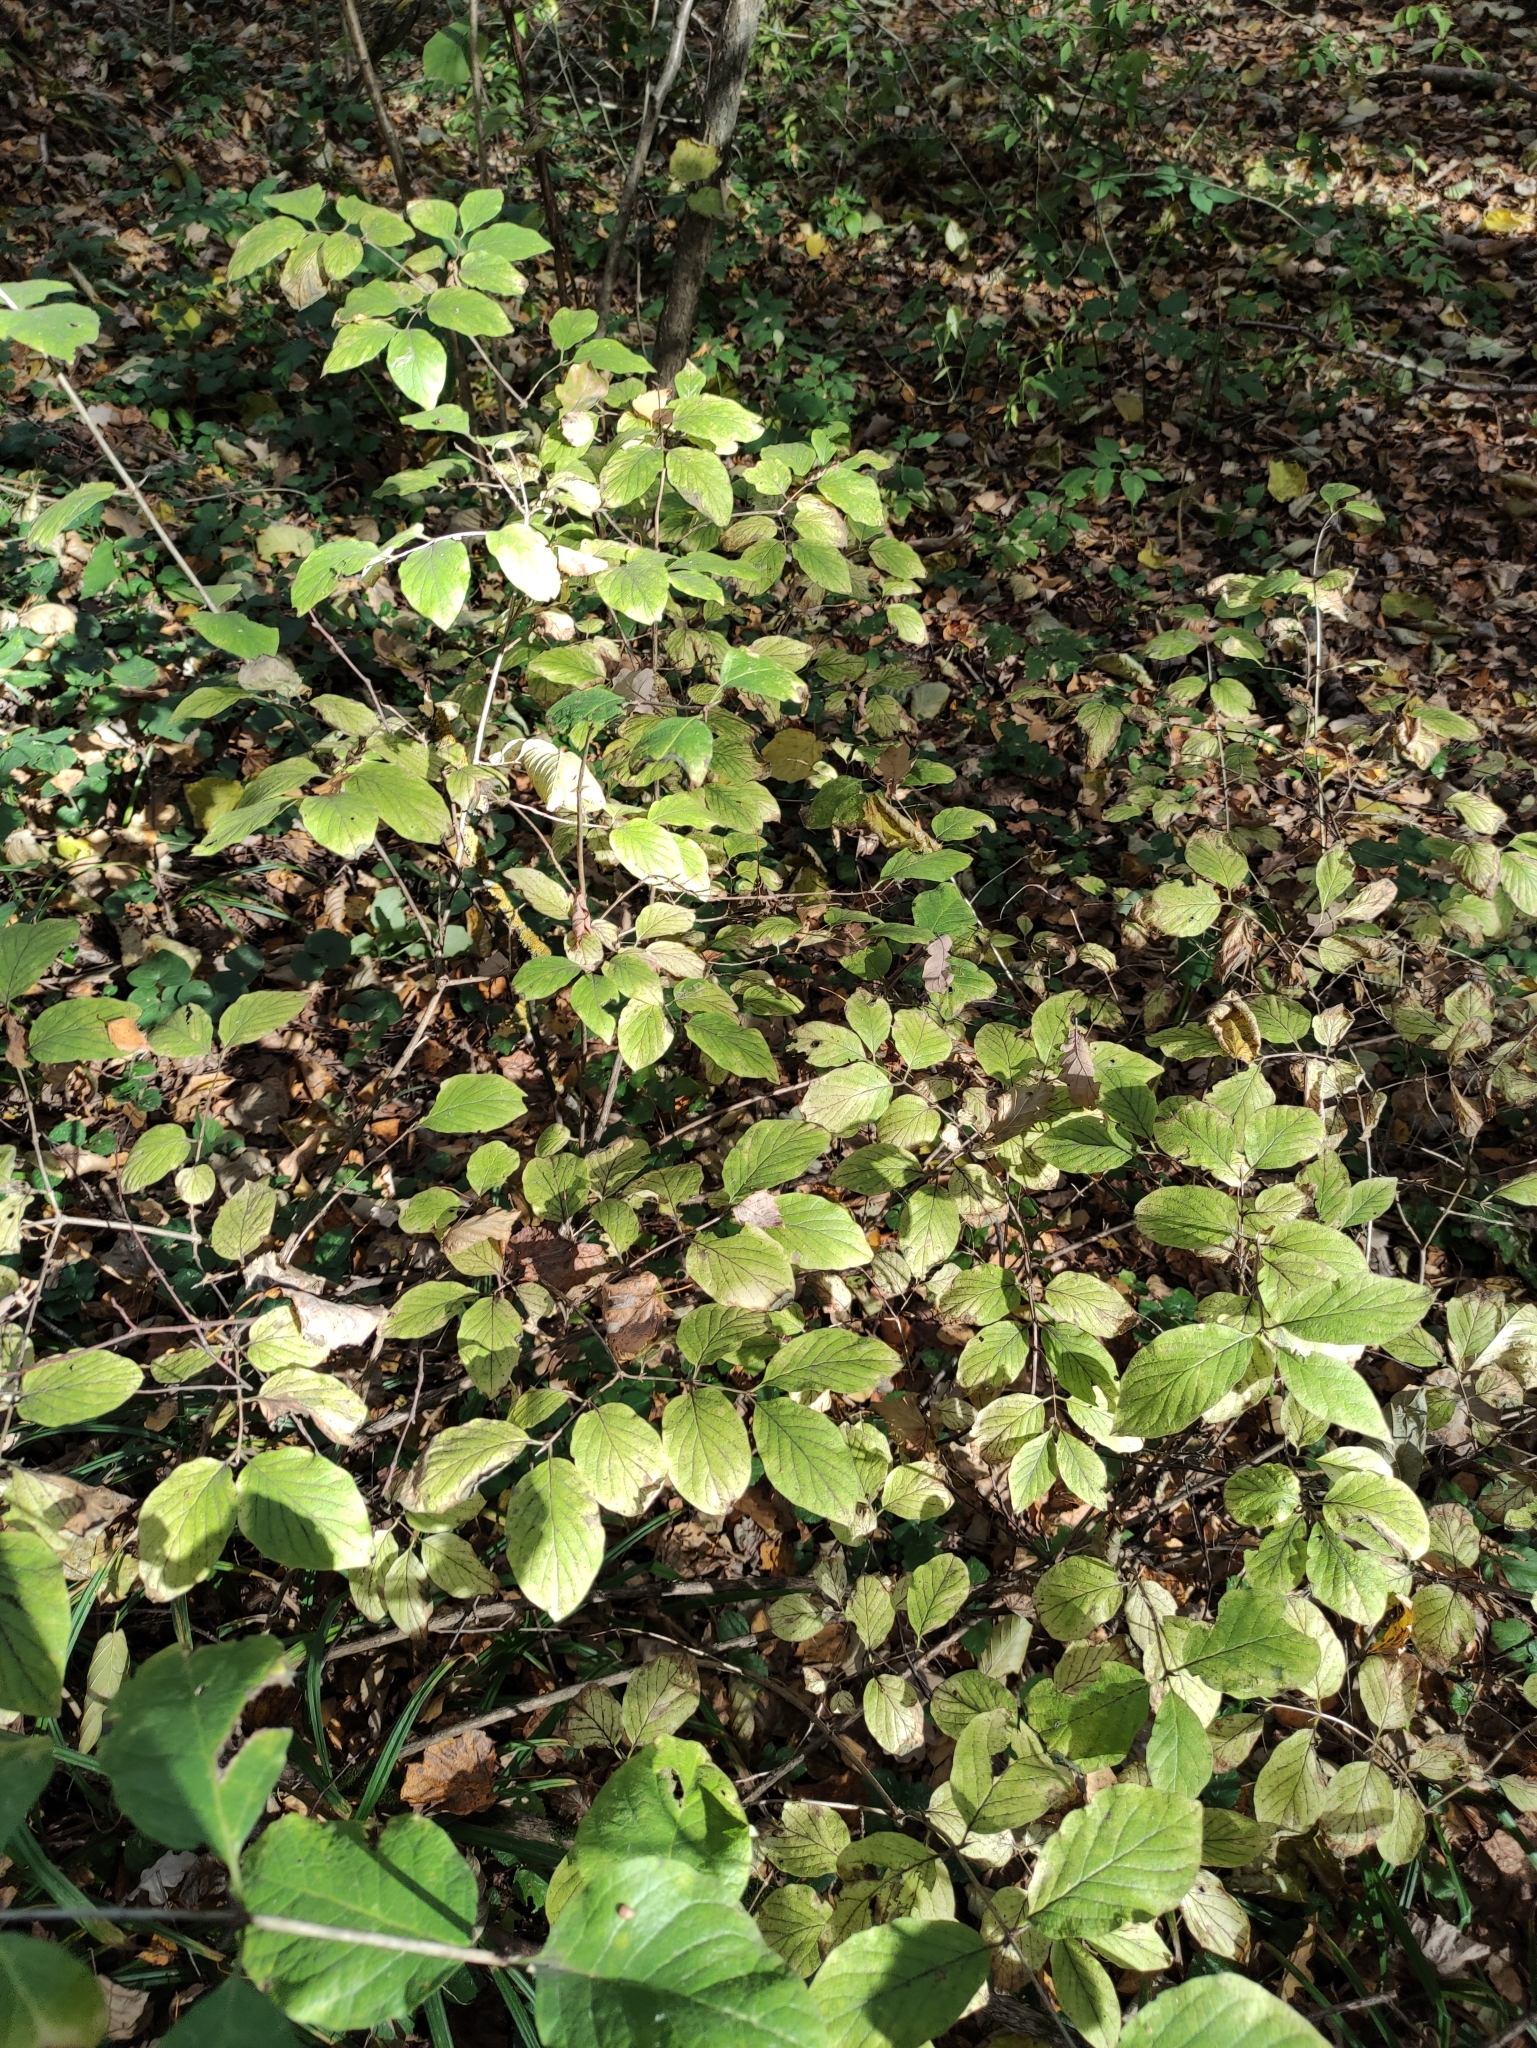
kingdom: Plantae
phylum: Tracheophyta
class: Magnoliopsida
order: Dipsacales
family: Caprifoliaceae
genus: Lonicera
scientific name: Lonicera xylosteum
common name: Fly honeysuckle
